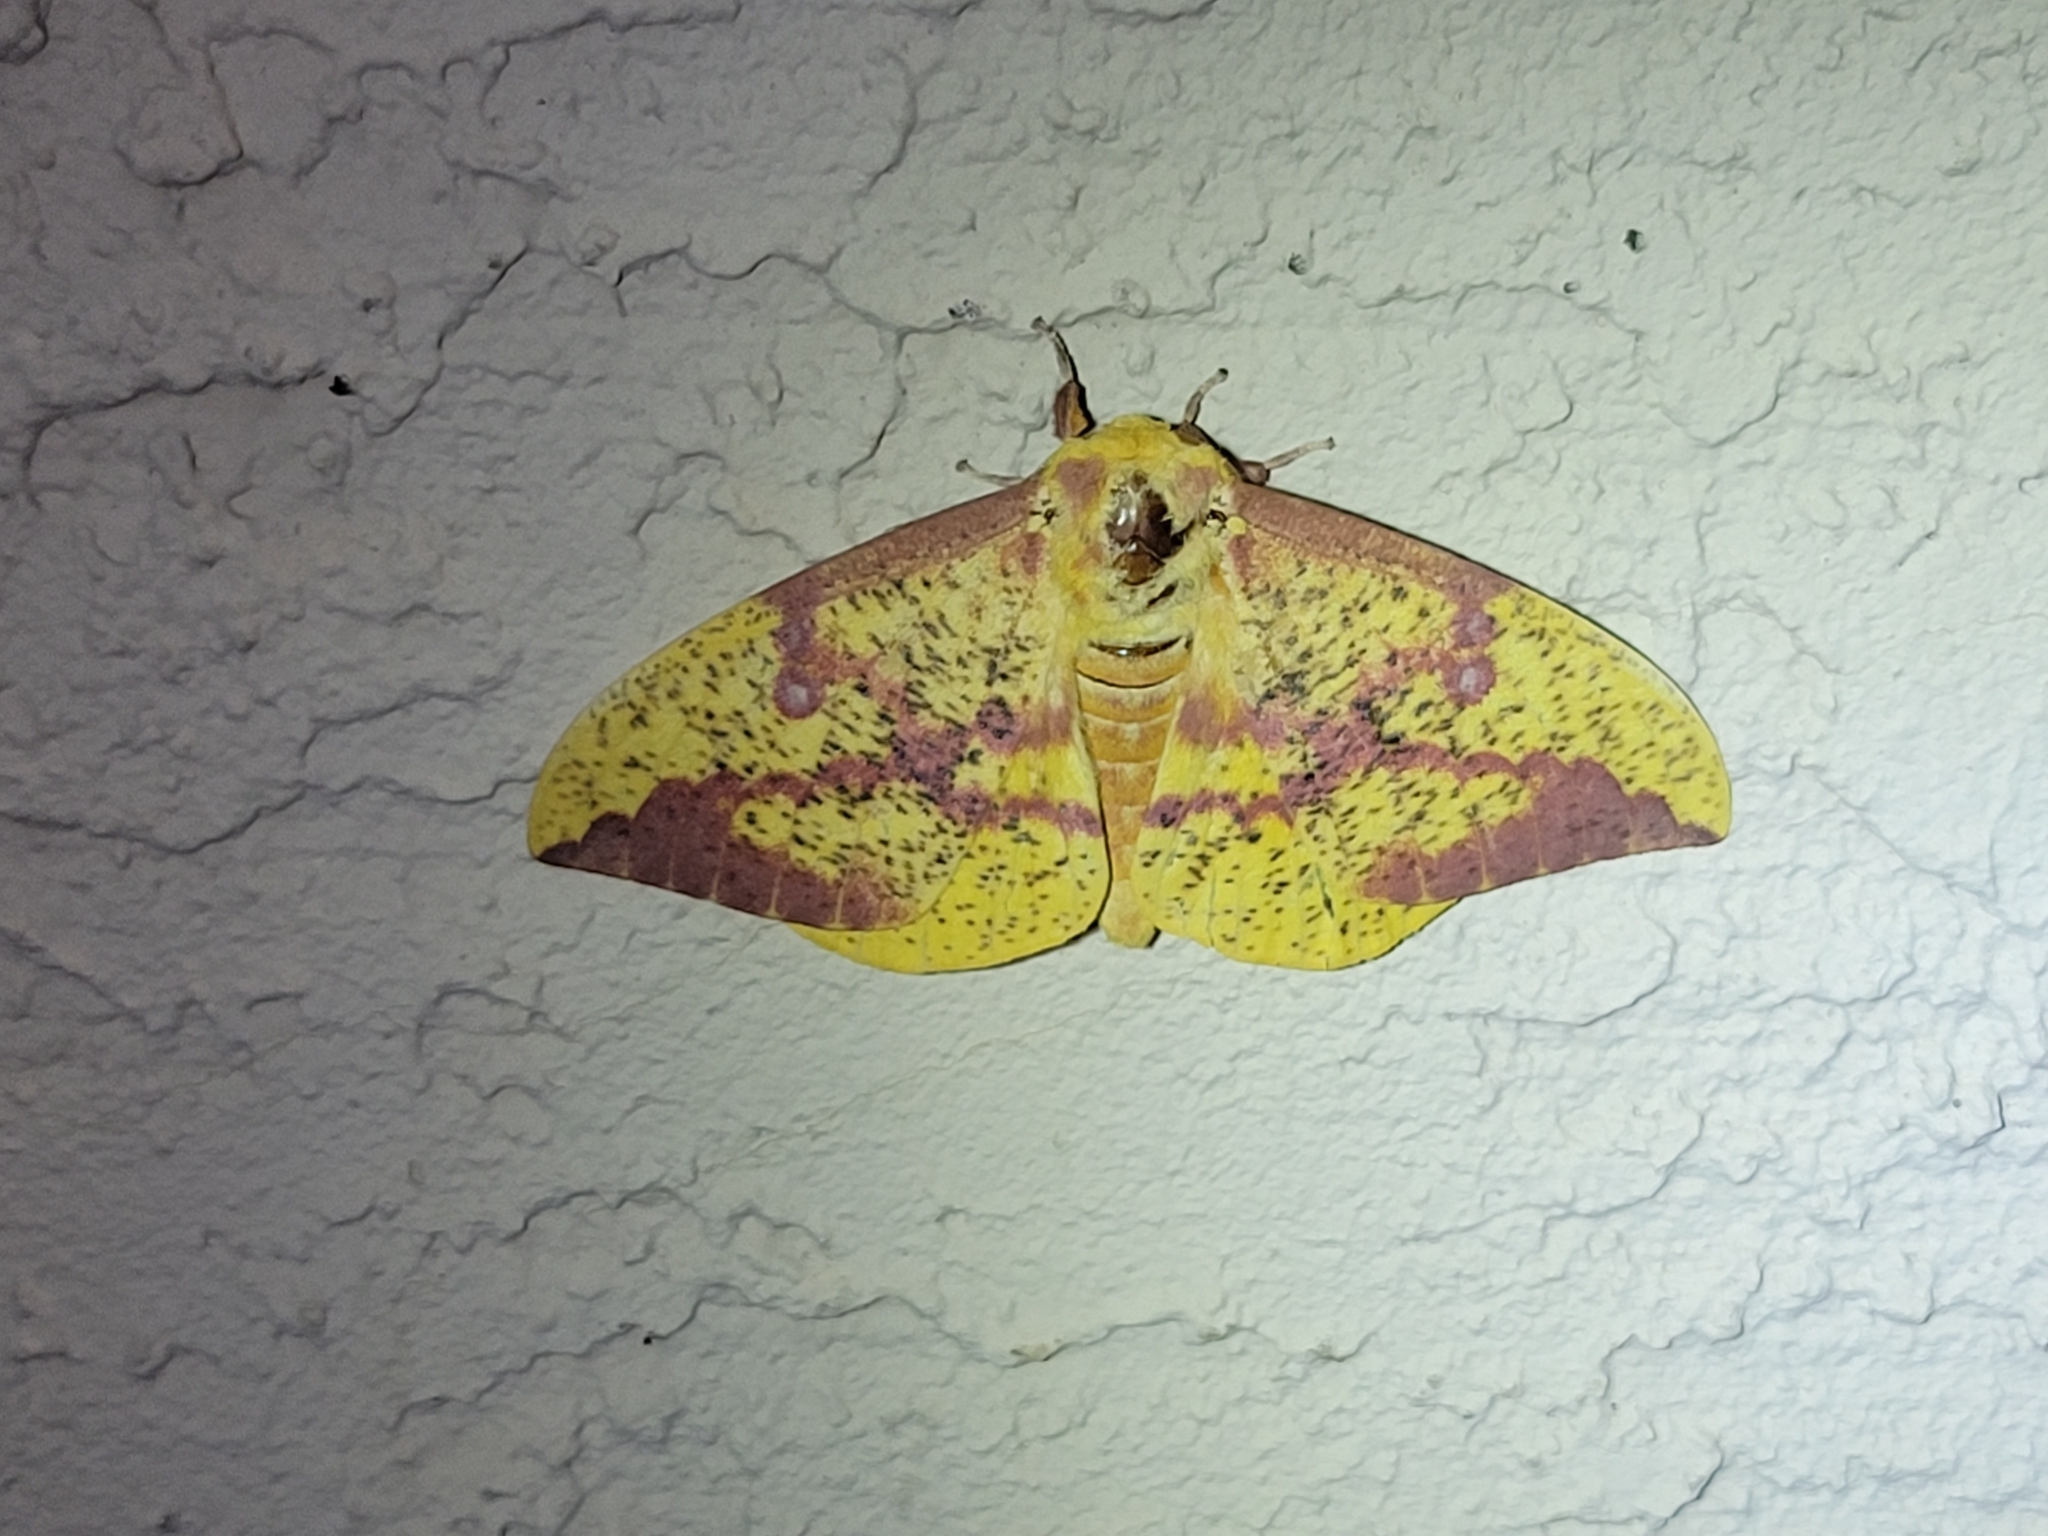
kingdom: Animalia
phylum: Arthropoda
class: Insecta
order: Lepidoptera
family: Saturniidae
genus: Eacles
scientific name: Eacles imperialis
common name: Imperial moth
